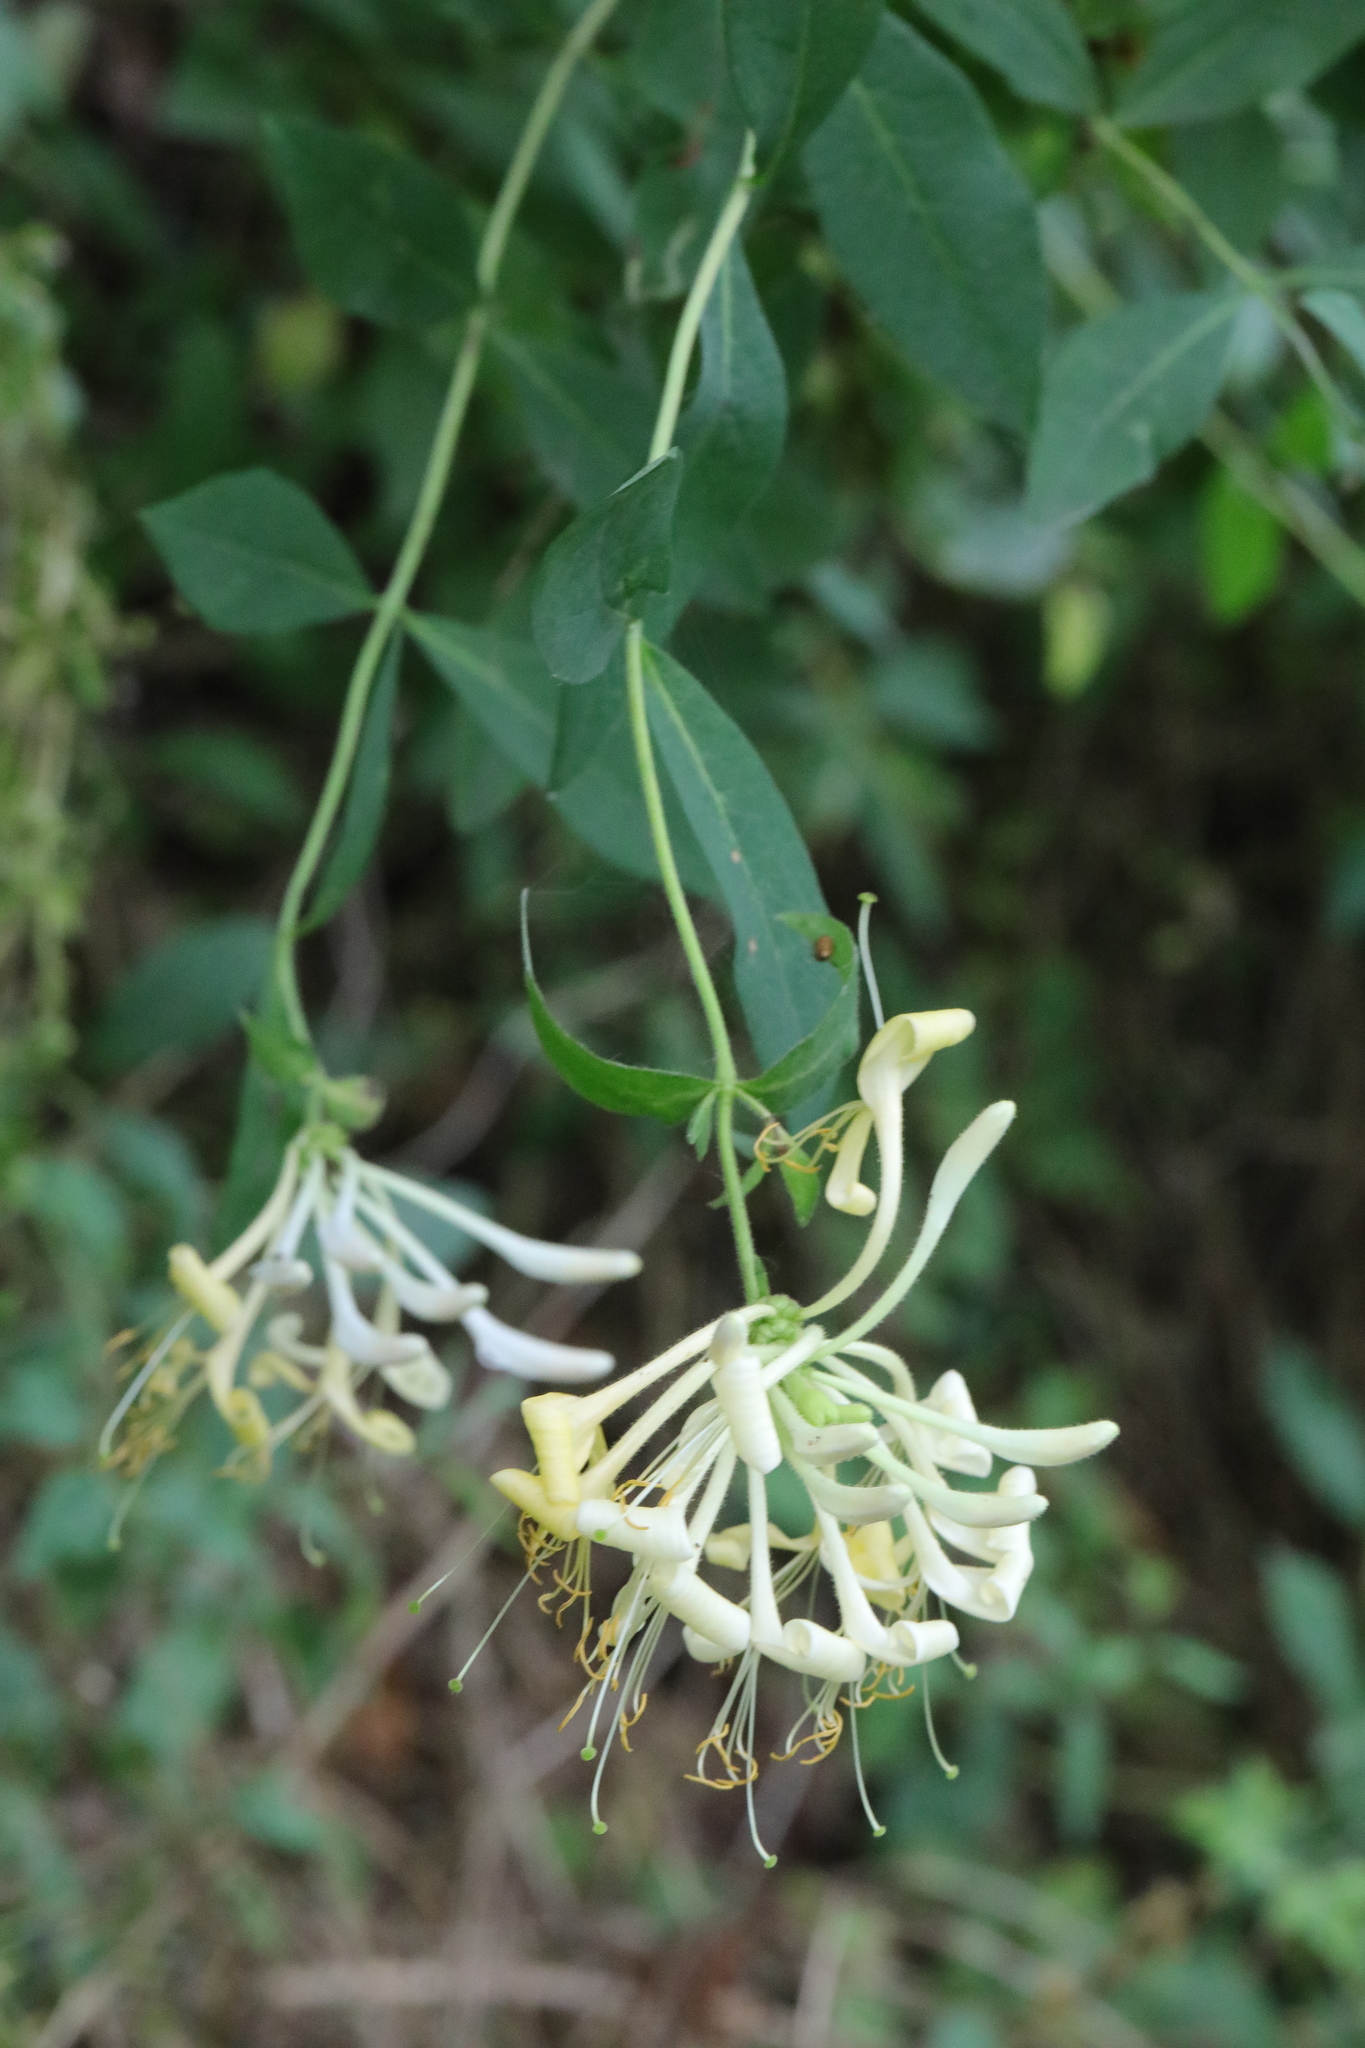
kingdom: Plantae
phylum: Tracheophyta
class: Magnoliopsida
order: Dipsacales
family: Caprifoliaceae
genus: Lonicera
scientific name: Lonicera periclymenum
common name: European honeysuckle
